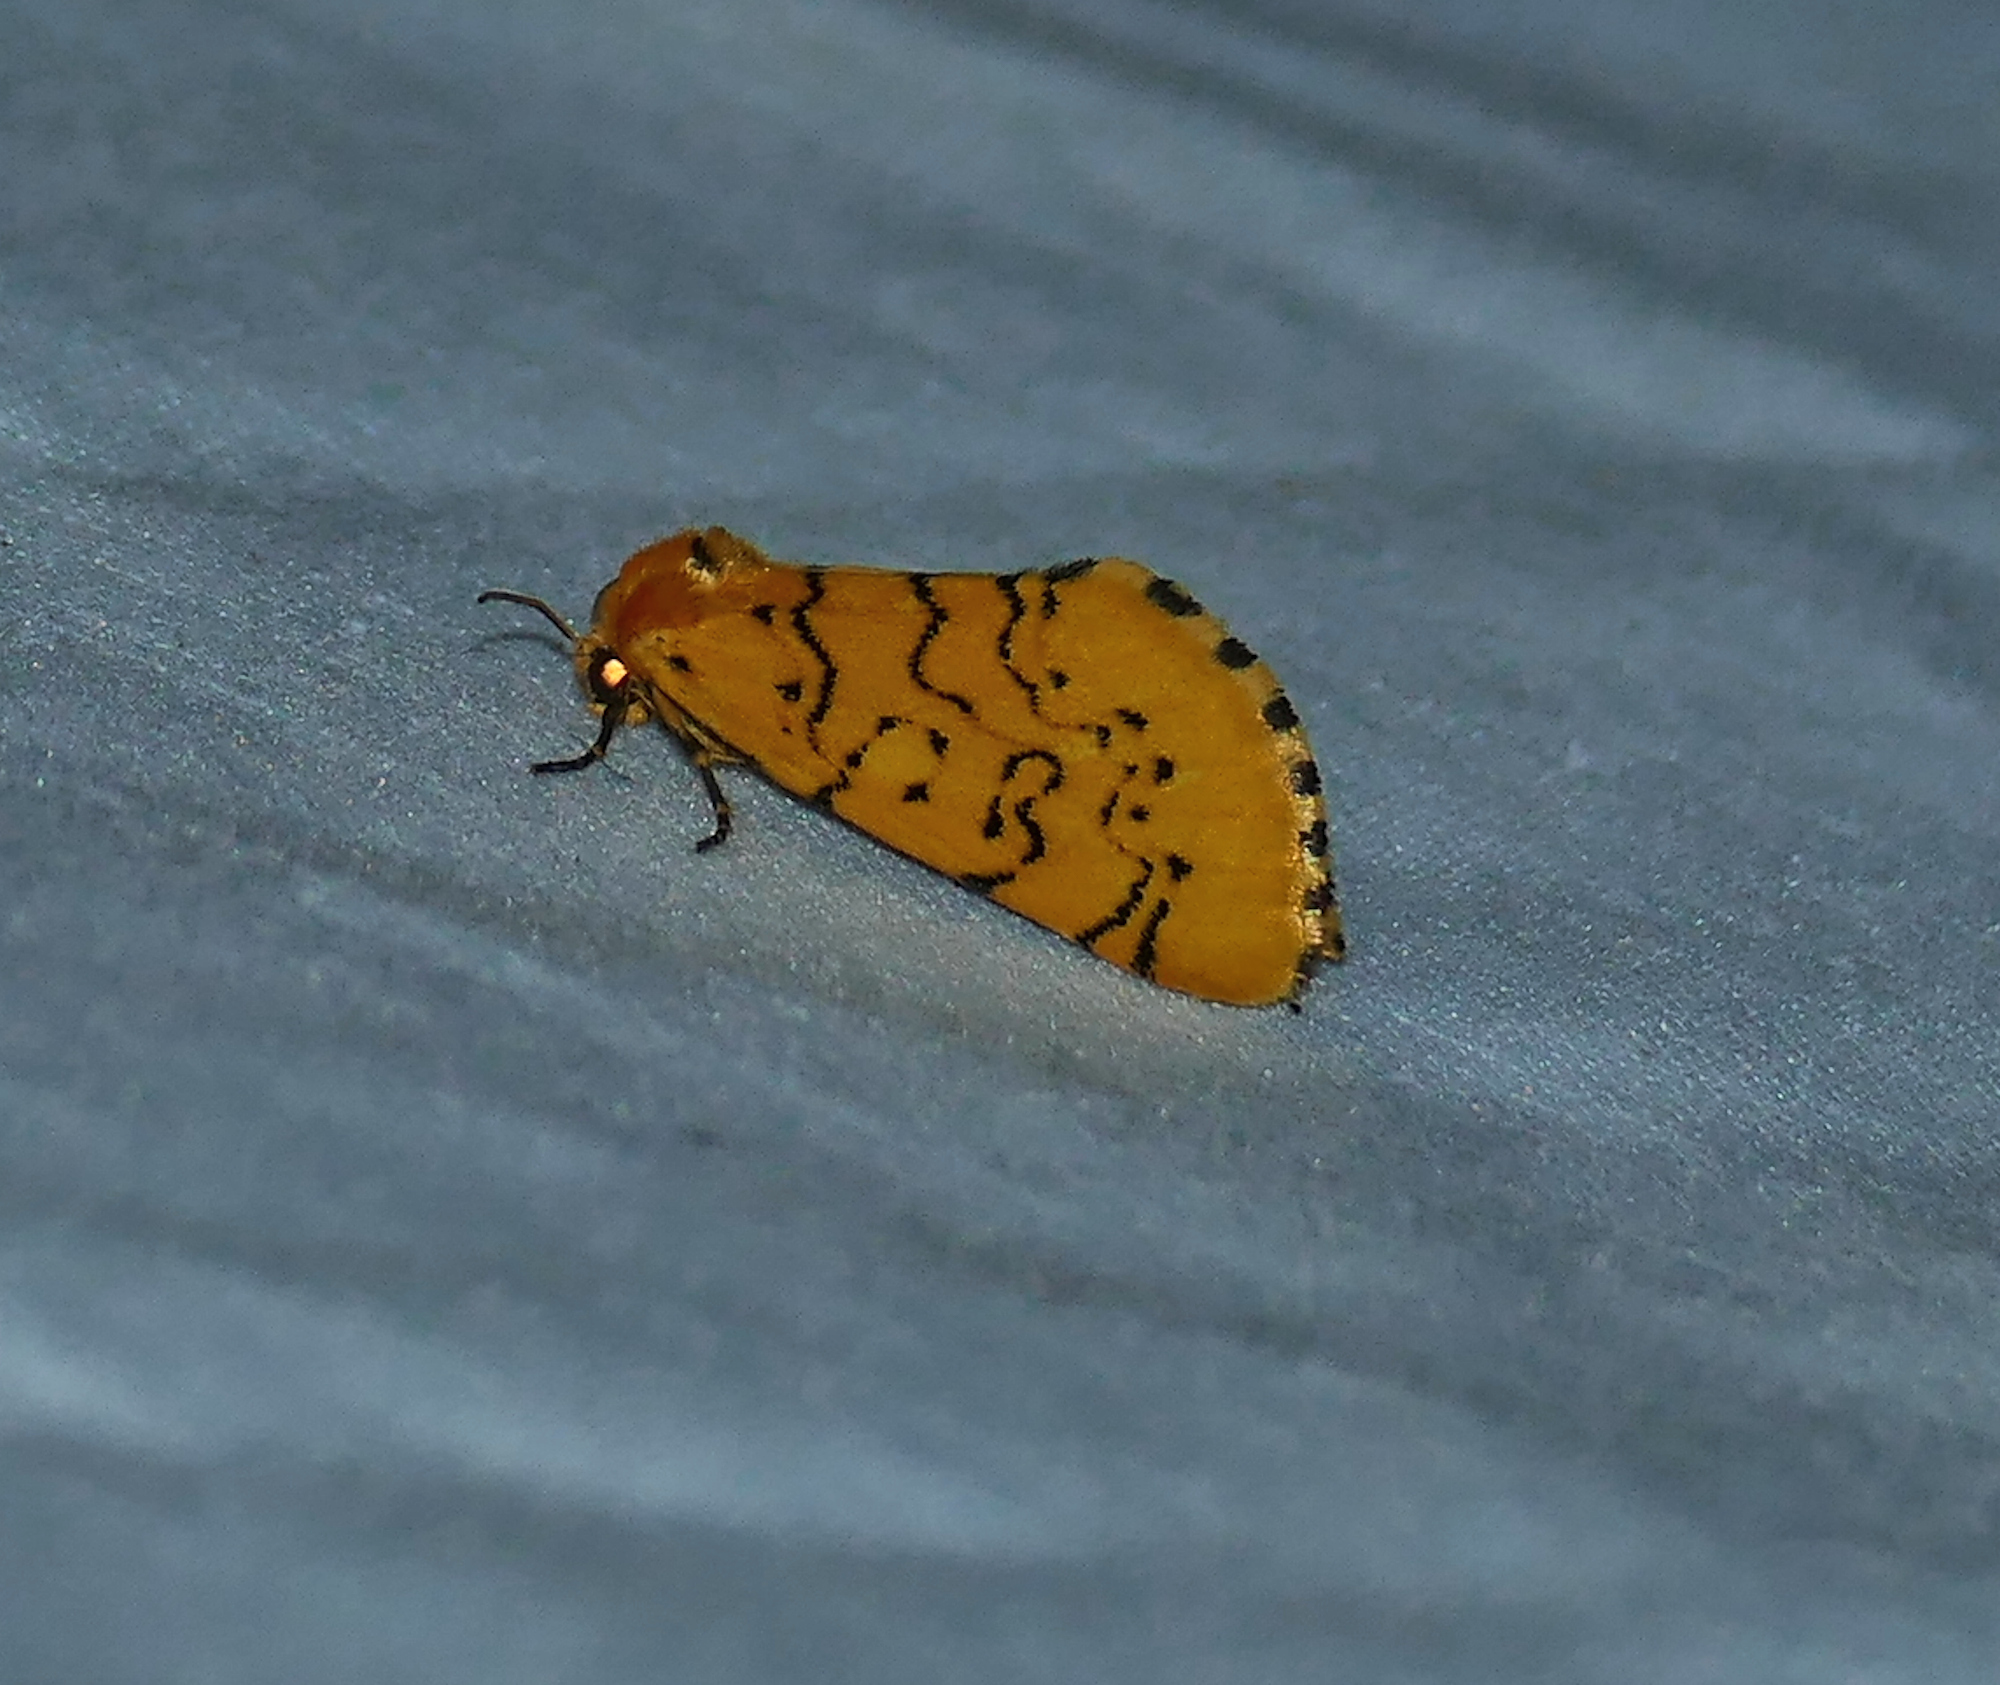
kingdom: Animalia
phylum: Arthropoda
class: Insecta
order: Lepidoptera
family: Noctuidae
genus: Chrysoecia
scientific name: Chrysoecia atrolinea
